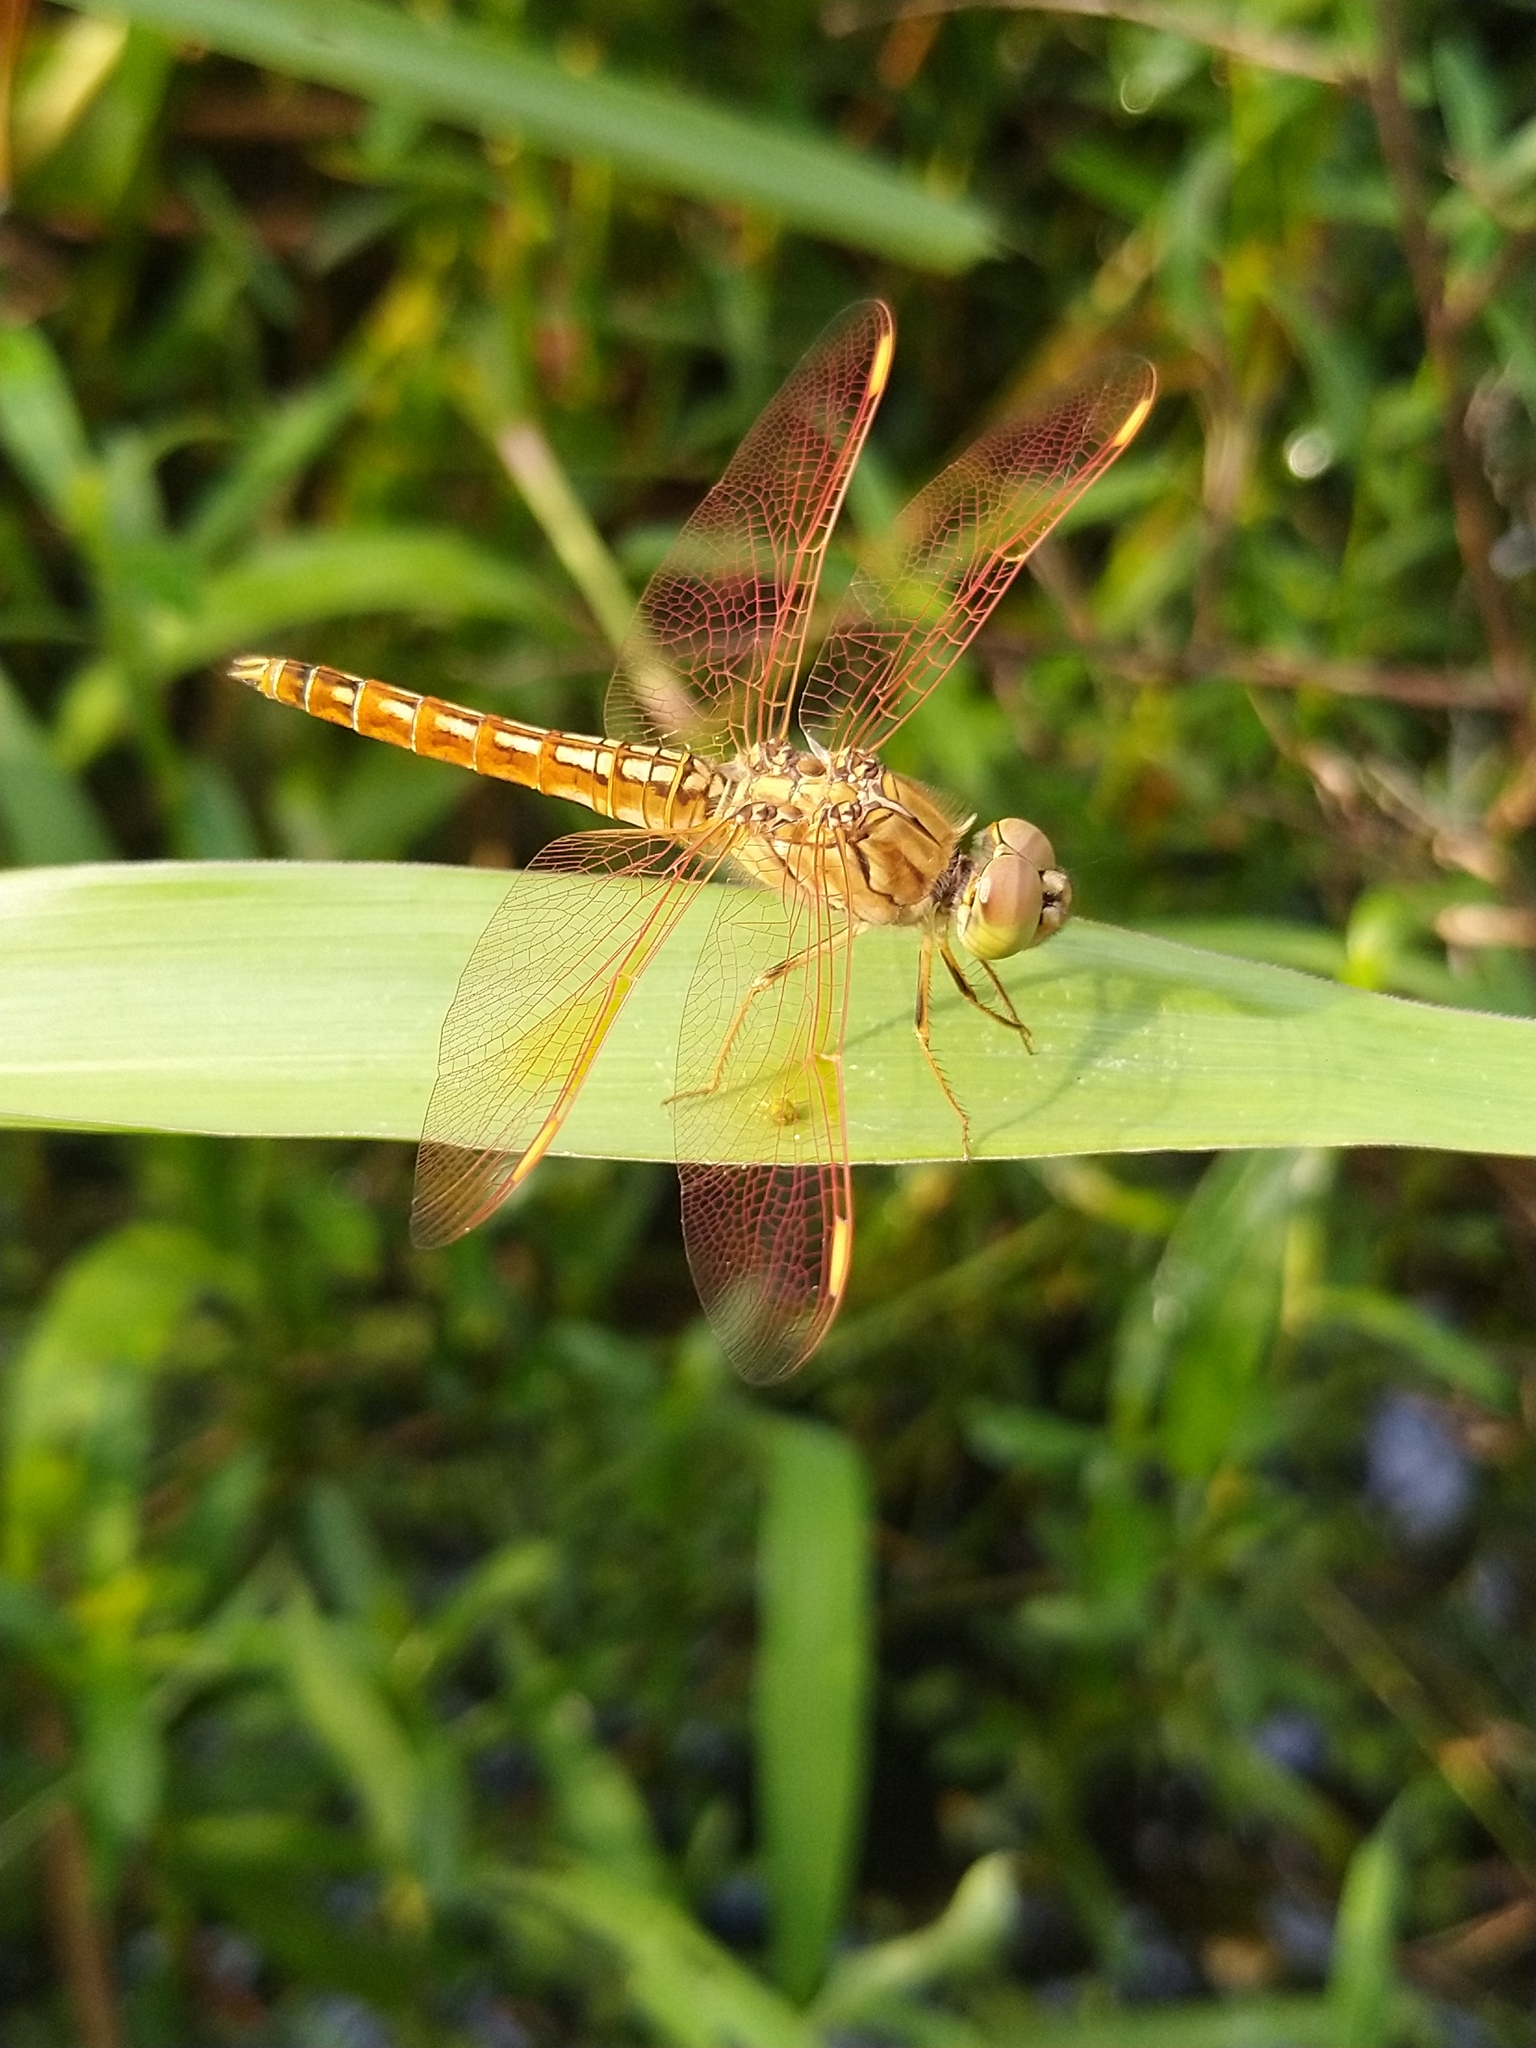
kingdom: Animalia
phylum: Arthropoda
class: Insecta
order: Odonata
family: Libellulidae
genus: Brachythemis
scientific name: Brachythemis contaminata
